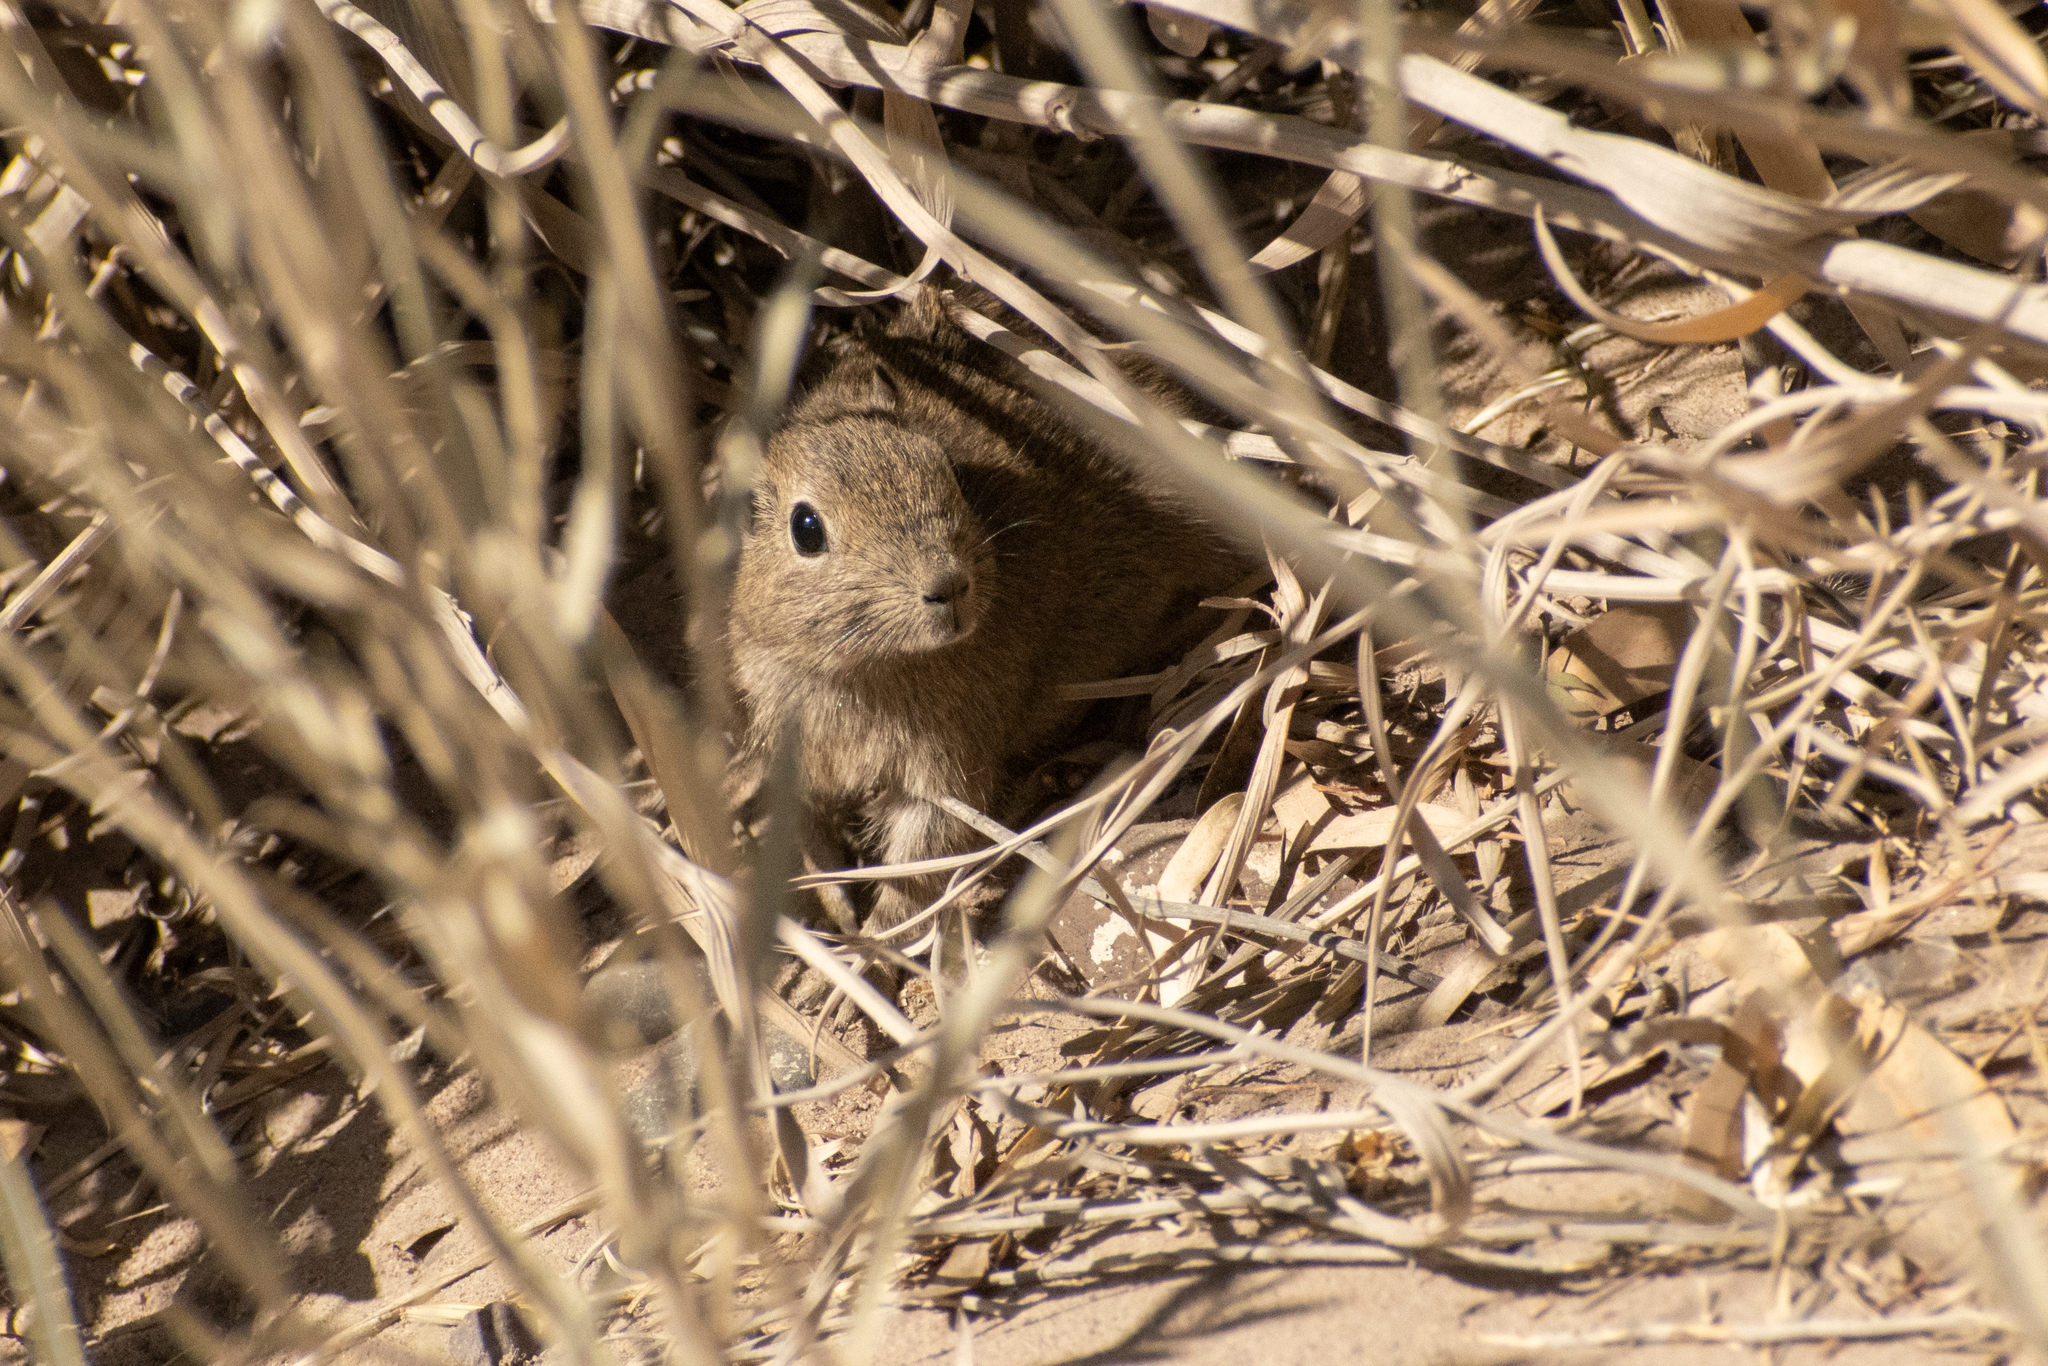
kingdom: Animalia
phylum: Chordata
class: Mammalia
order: Rodentia
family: Caviidae
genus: Microcavia
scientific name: Microcavia australis
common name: Southern mountain cavy
